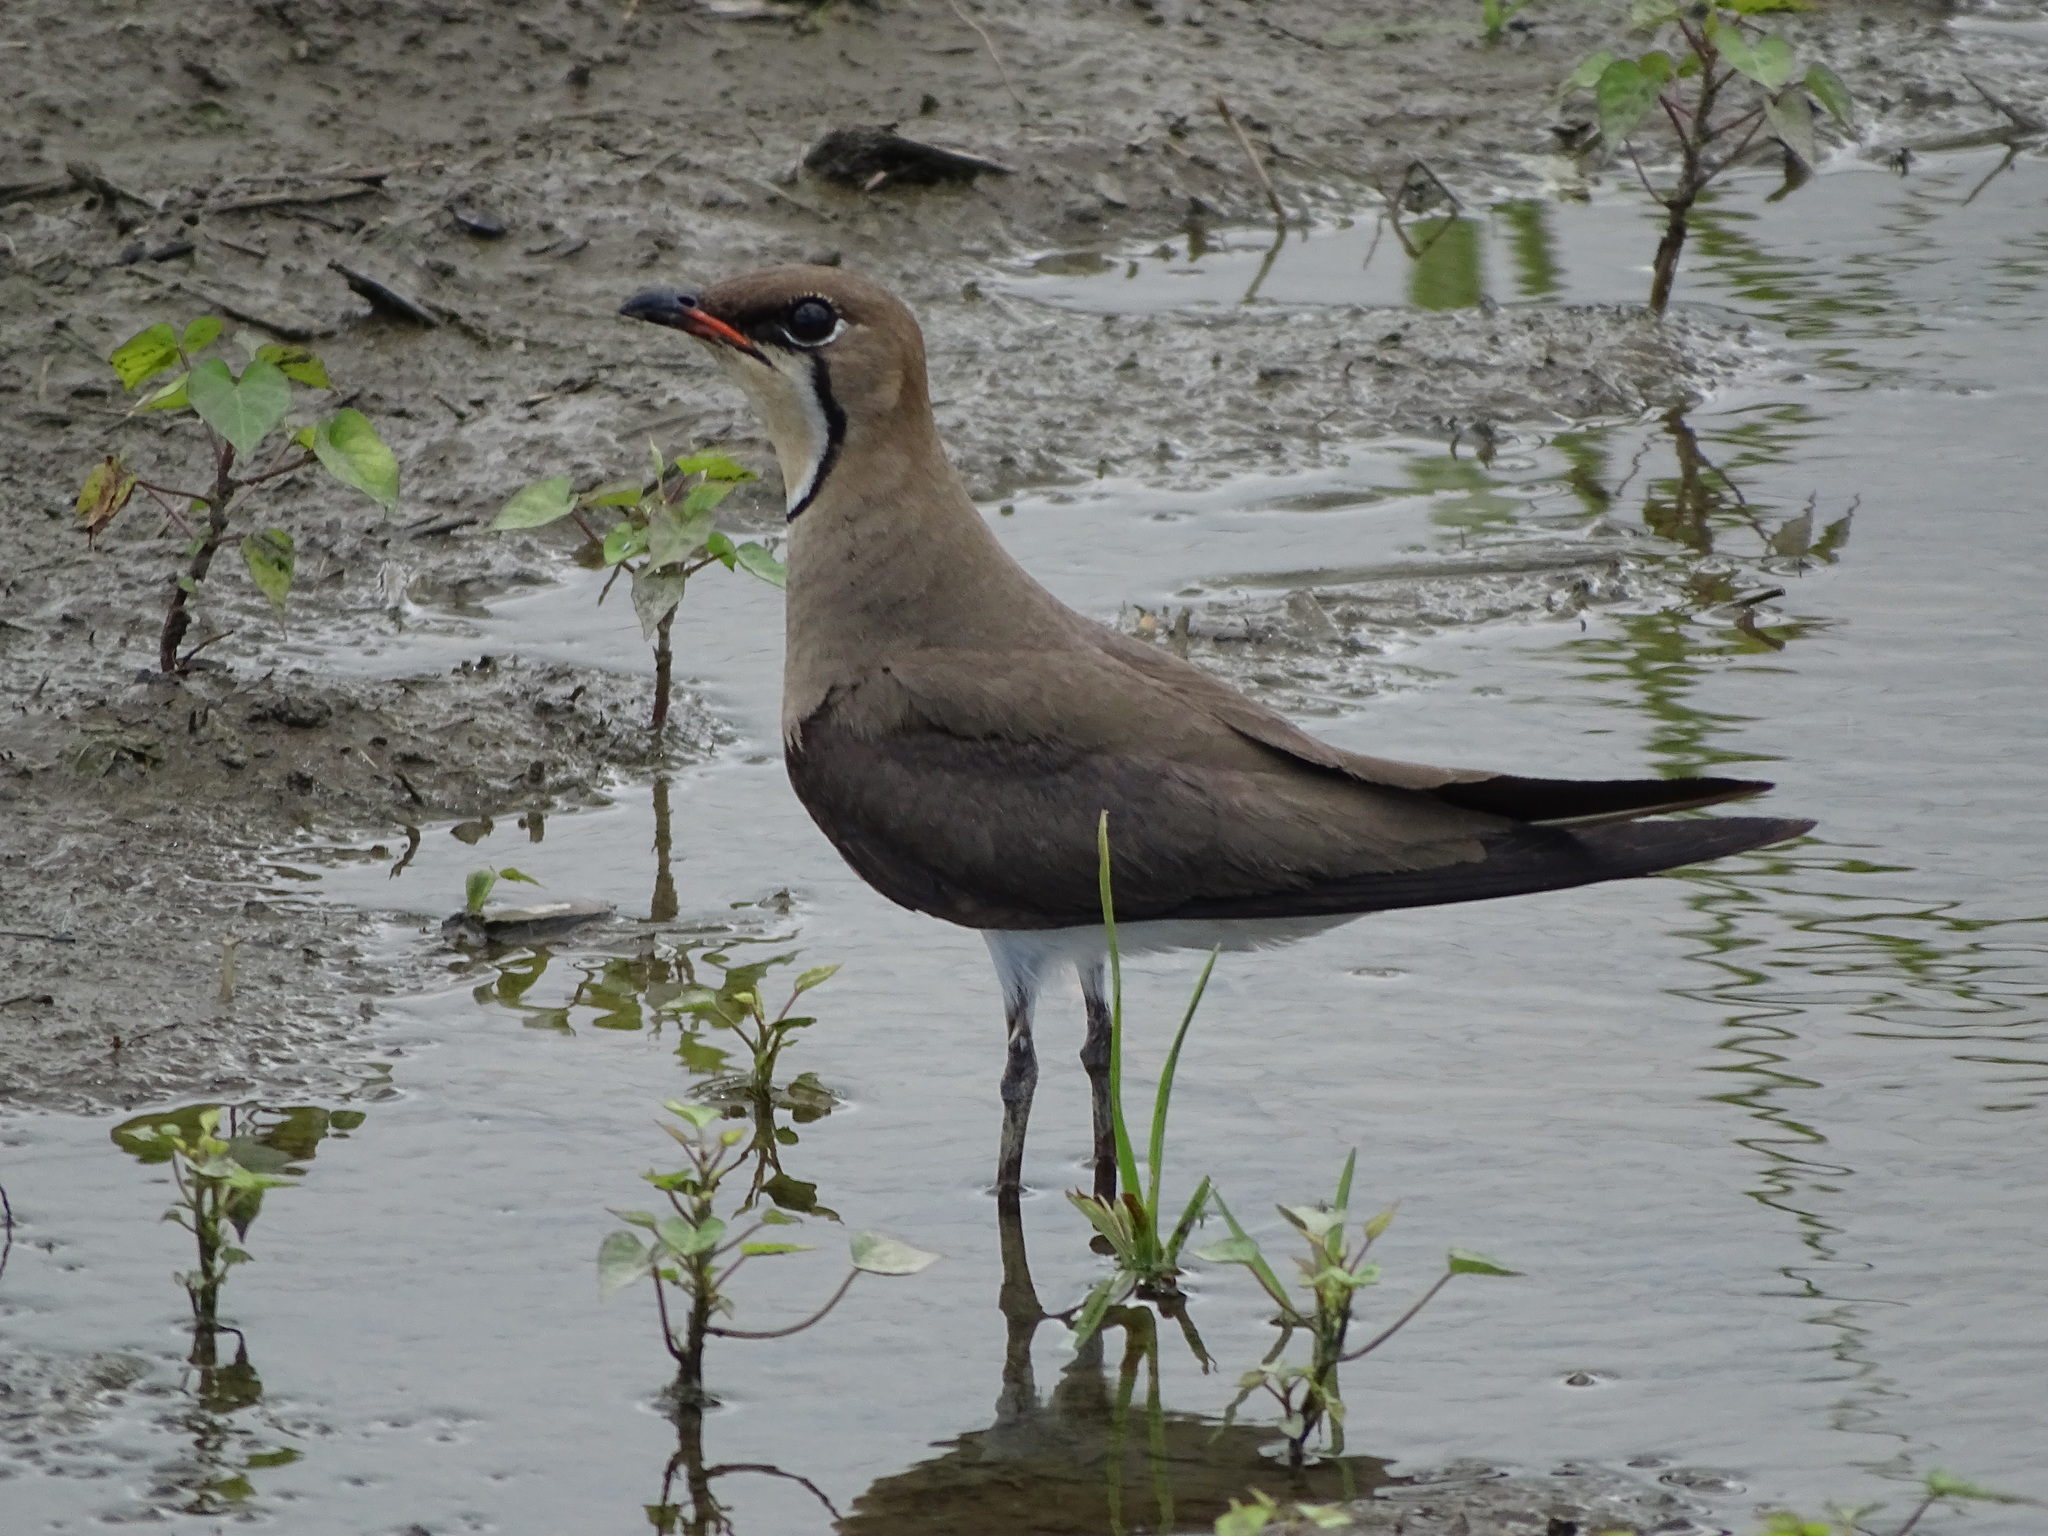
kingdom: Animalia
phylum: Chordata
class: Aves
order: Charadriiformes
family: Glareolidae
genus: Glareola
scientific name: Glareola maldivarum
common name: Oriental pratincole
